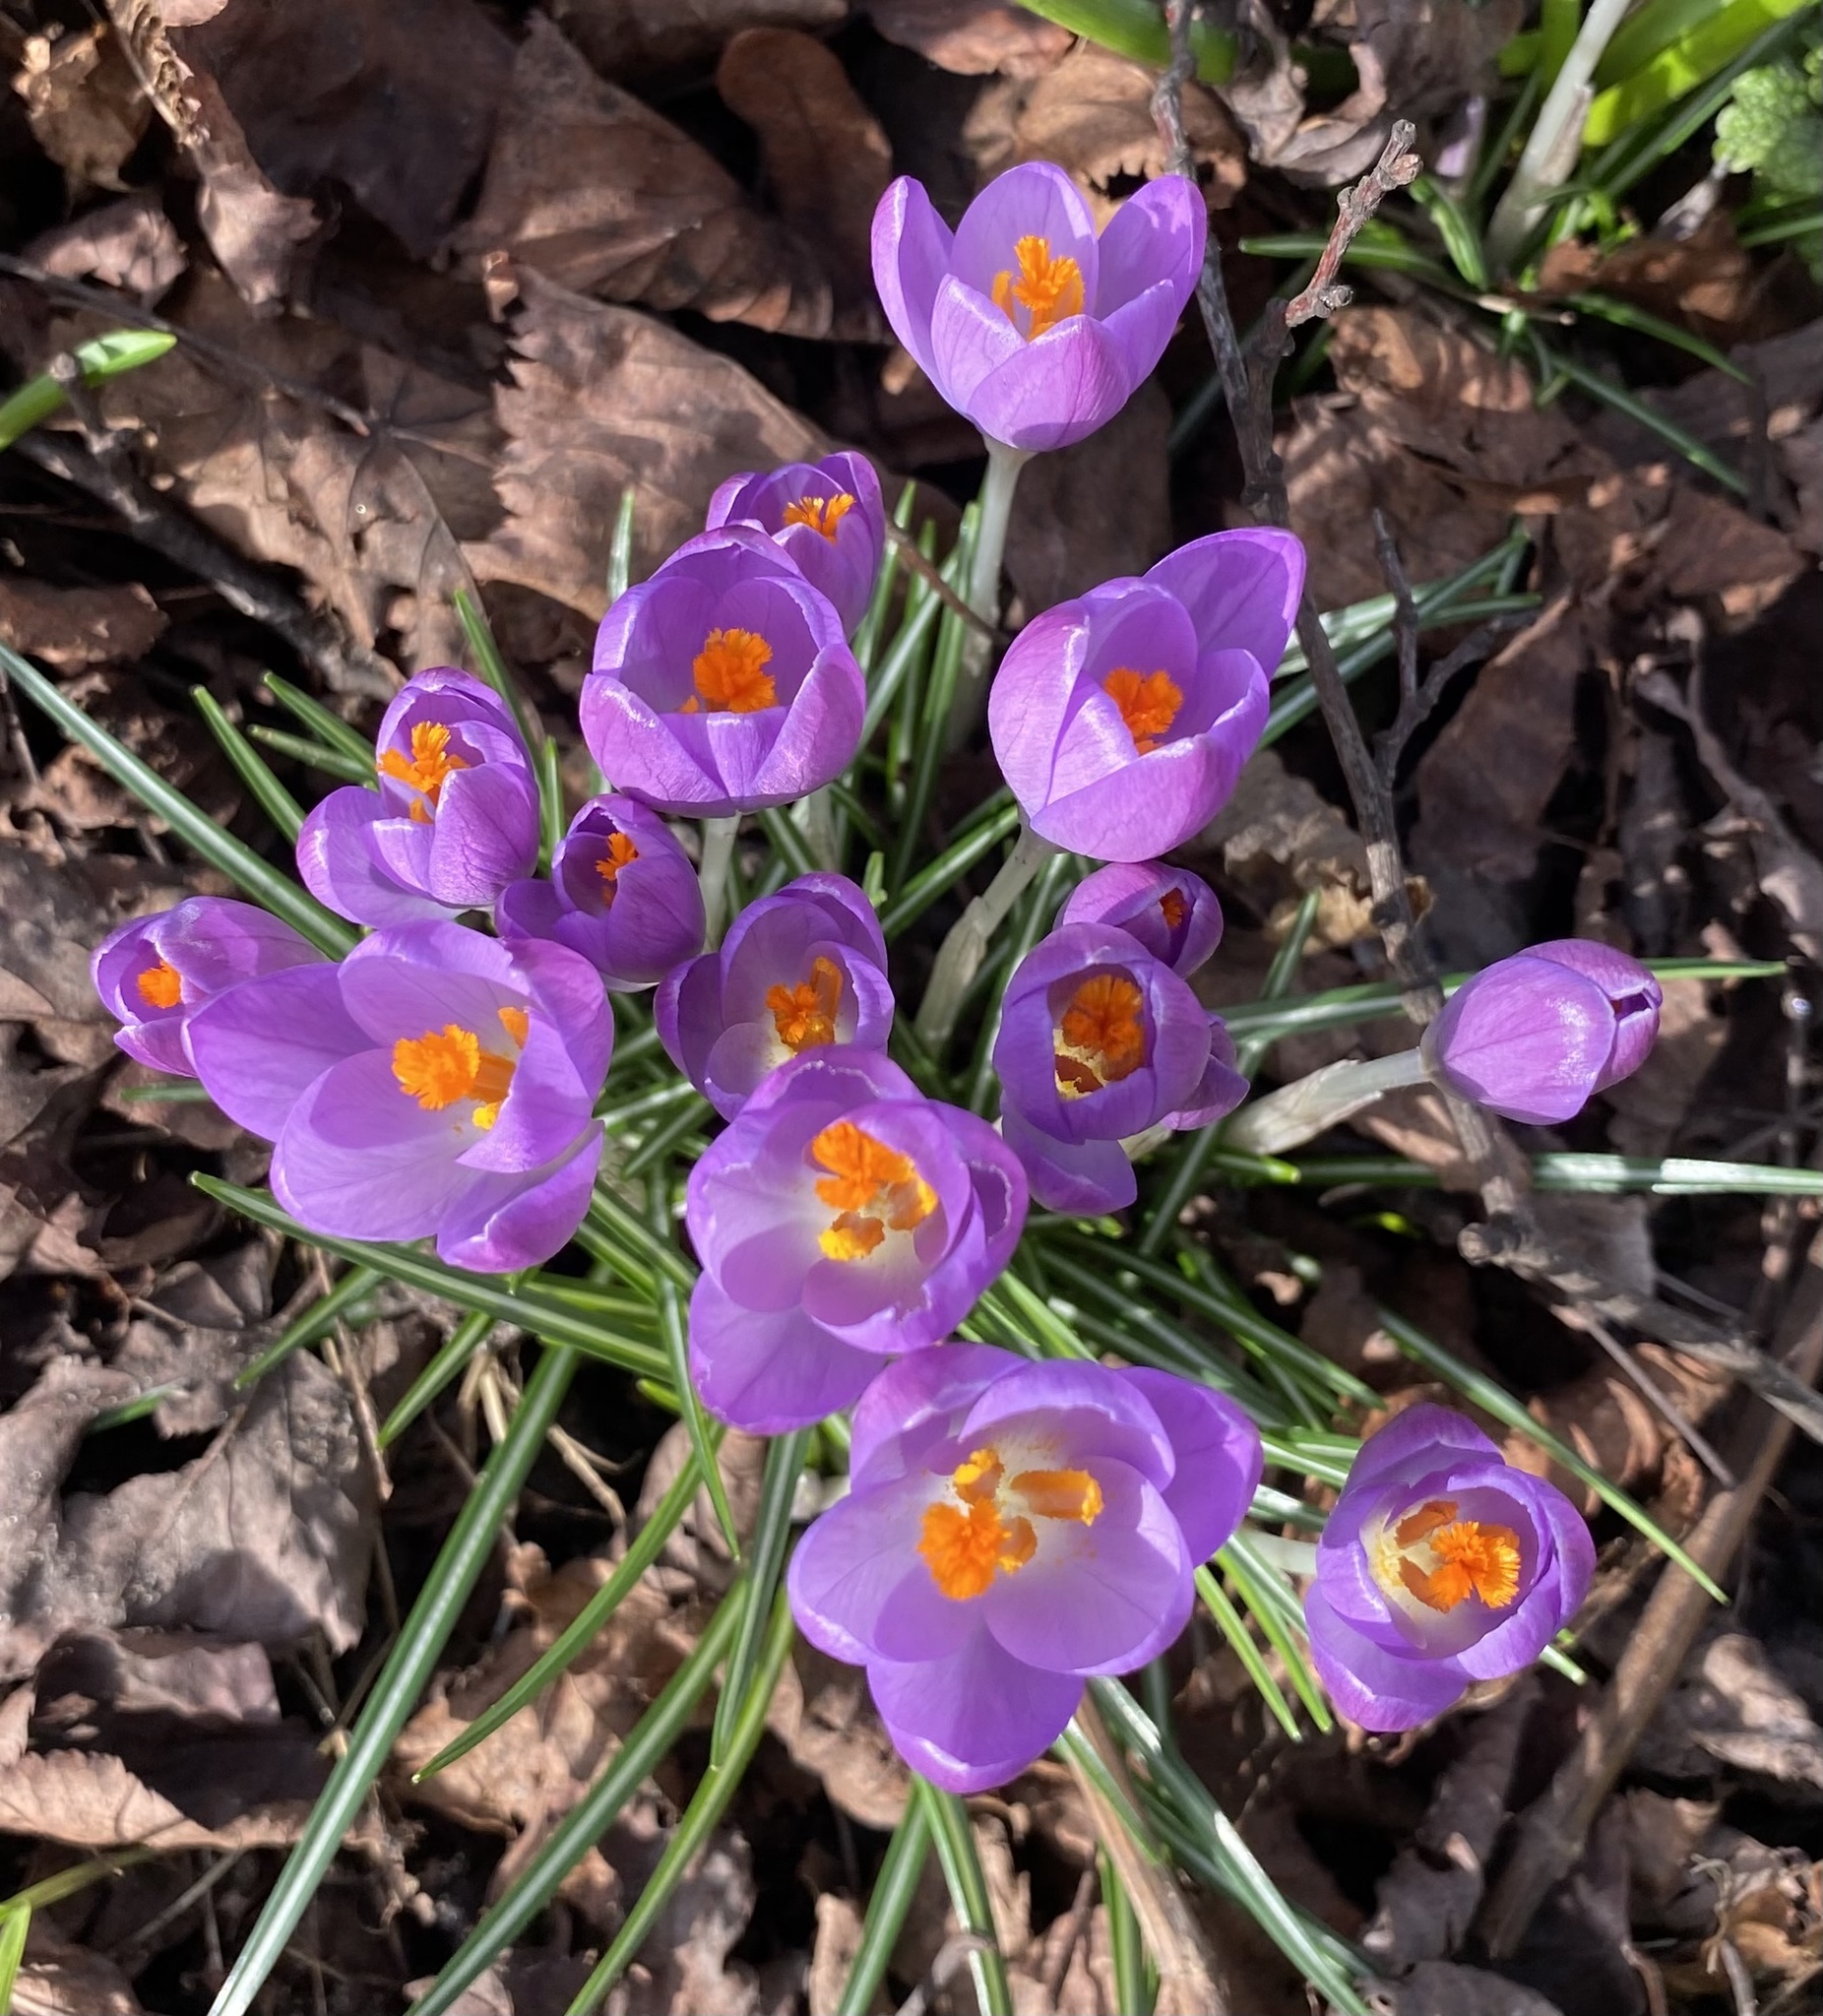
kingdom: Plantae
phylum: Tracheophyta
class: Liliopsida
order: Asparagales
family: Iridaceae
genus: Crocus
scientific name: Crocus tommasinianus
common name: Early crocus
